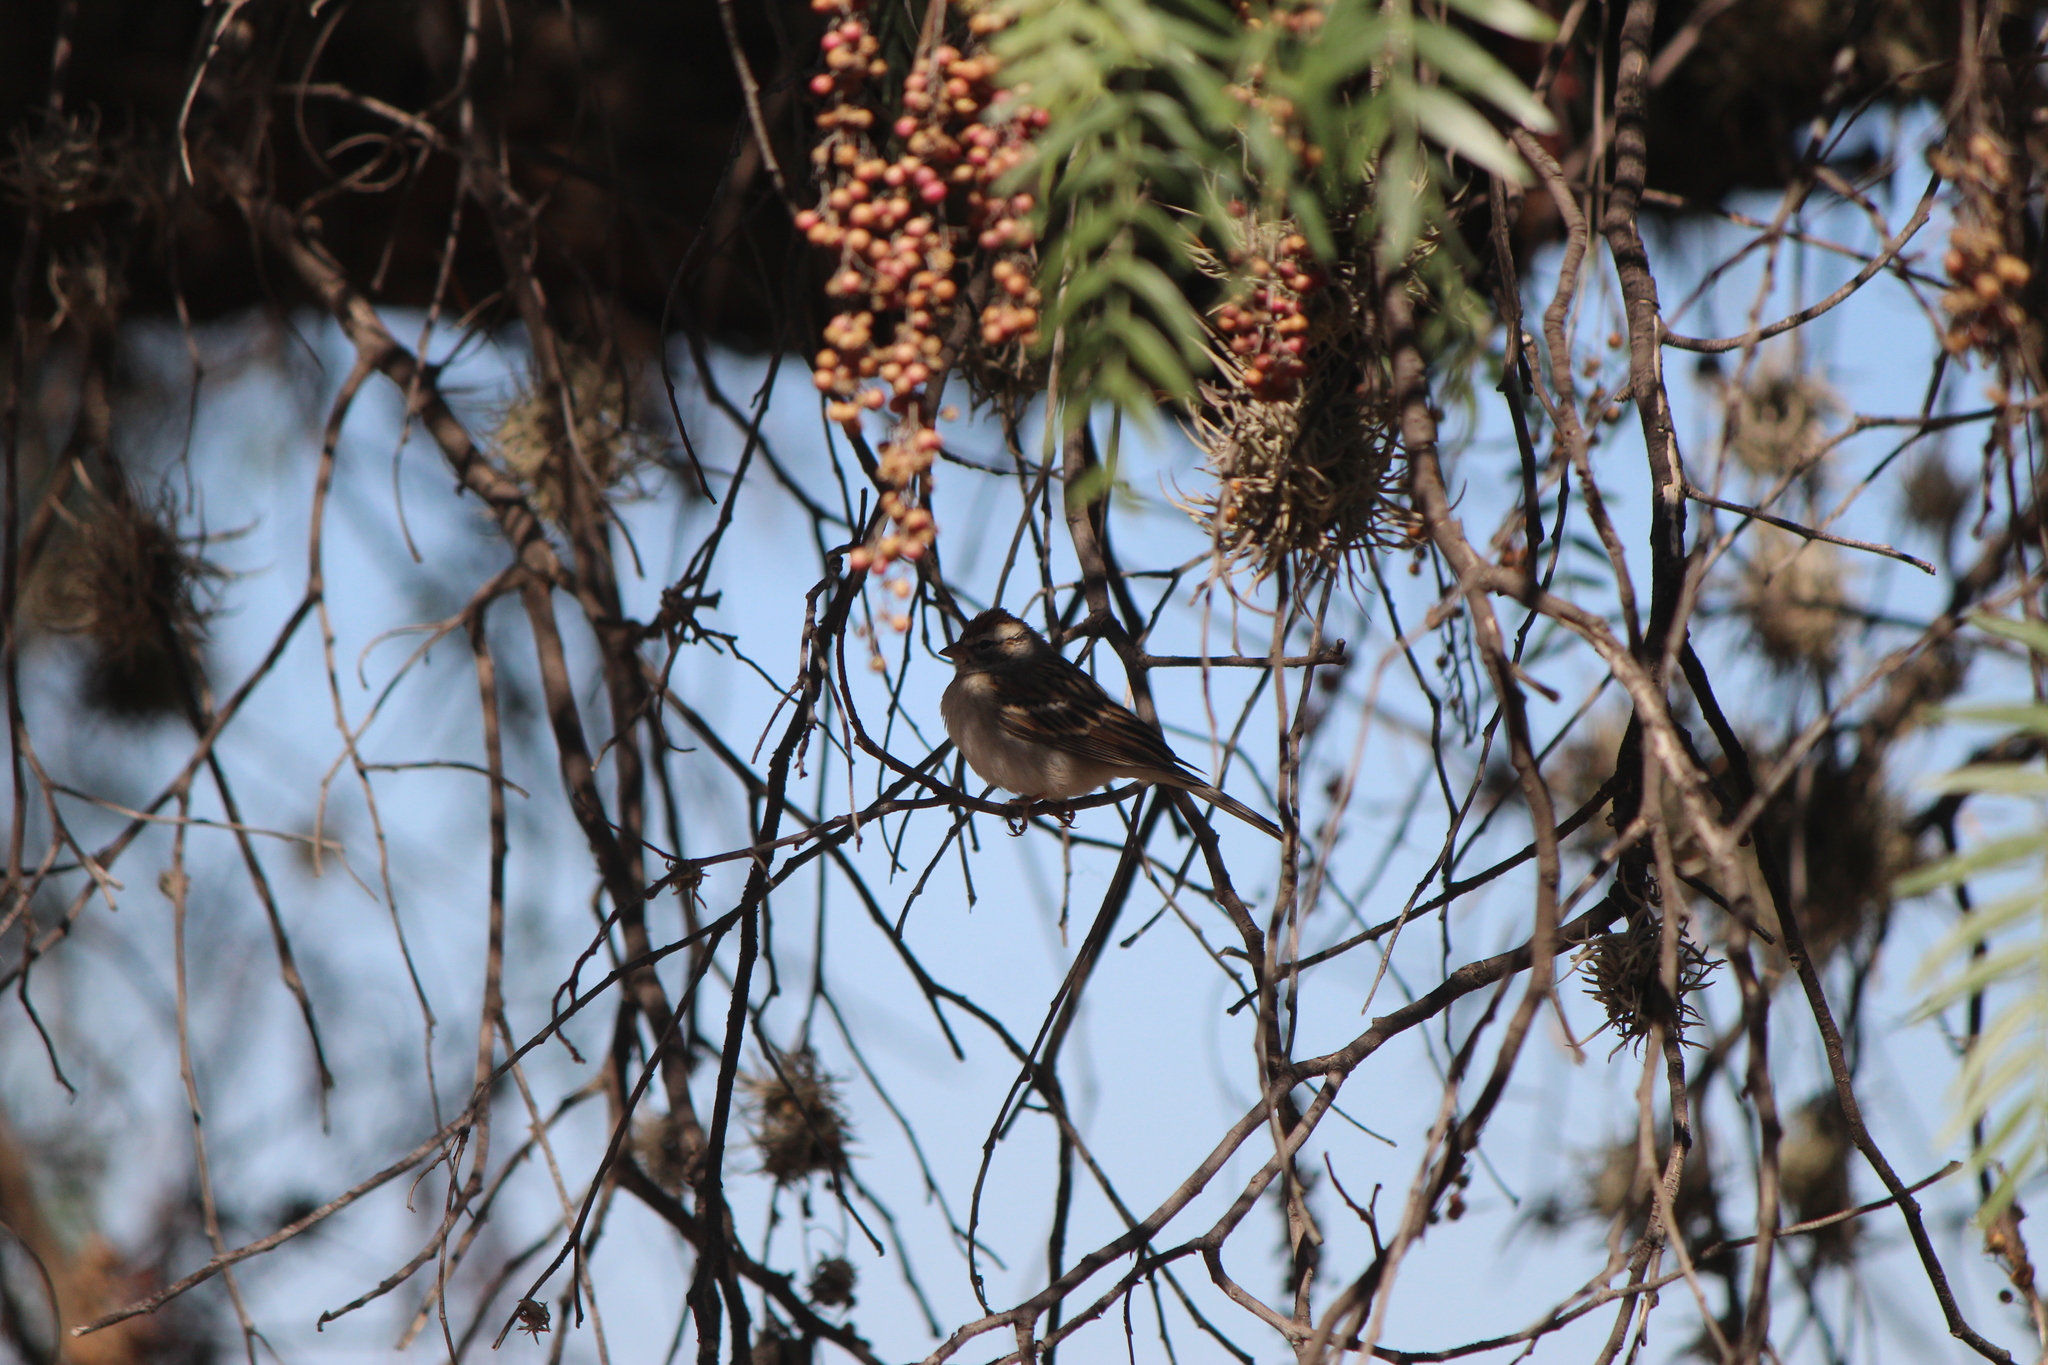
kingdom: Animalia
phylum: Chordata
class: Aves
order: Passeriformes
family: Passerellidae
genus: Spizella
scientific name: Spizella passerina
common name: Chipping sparrow
